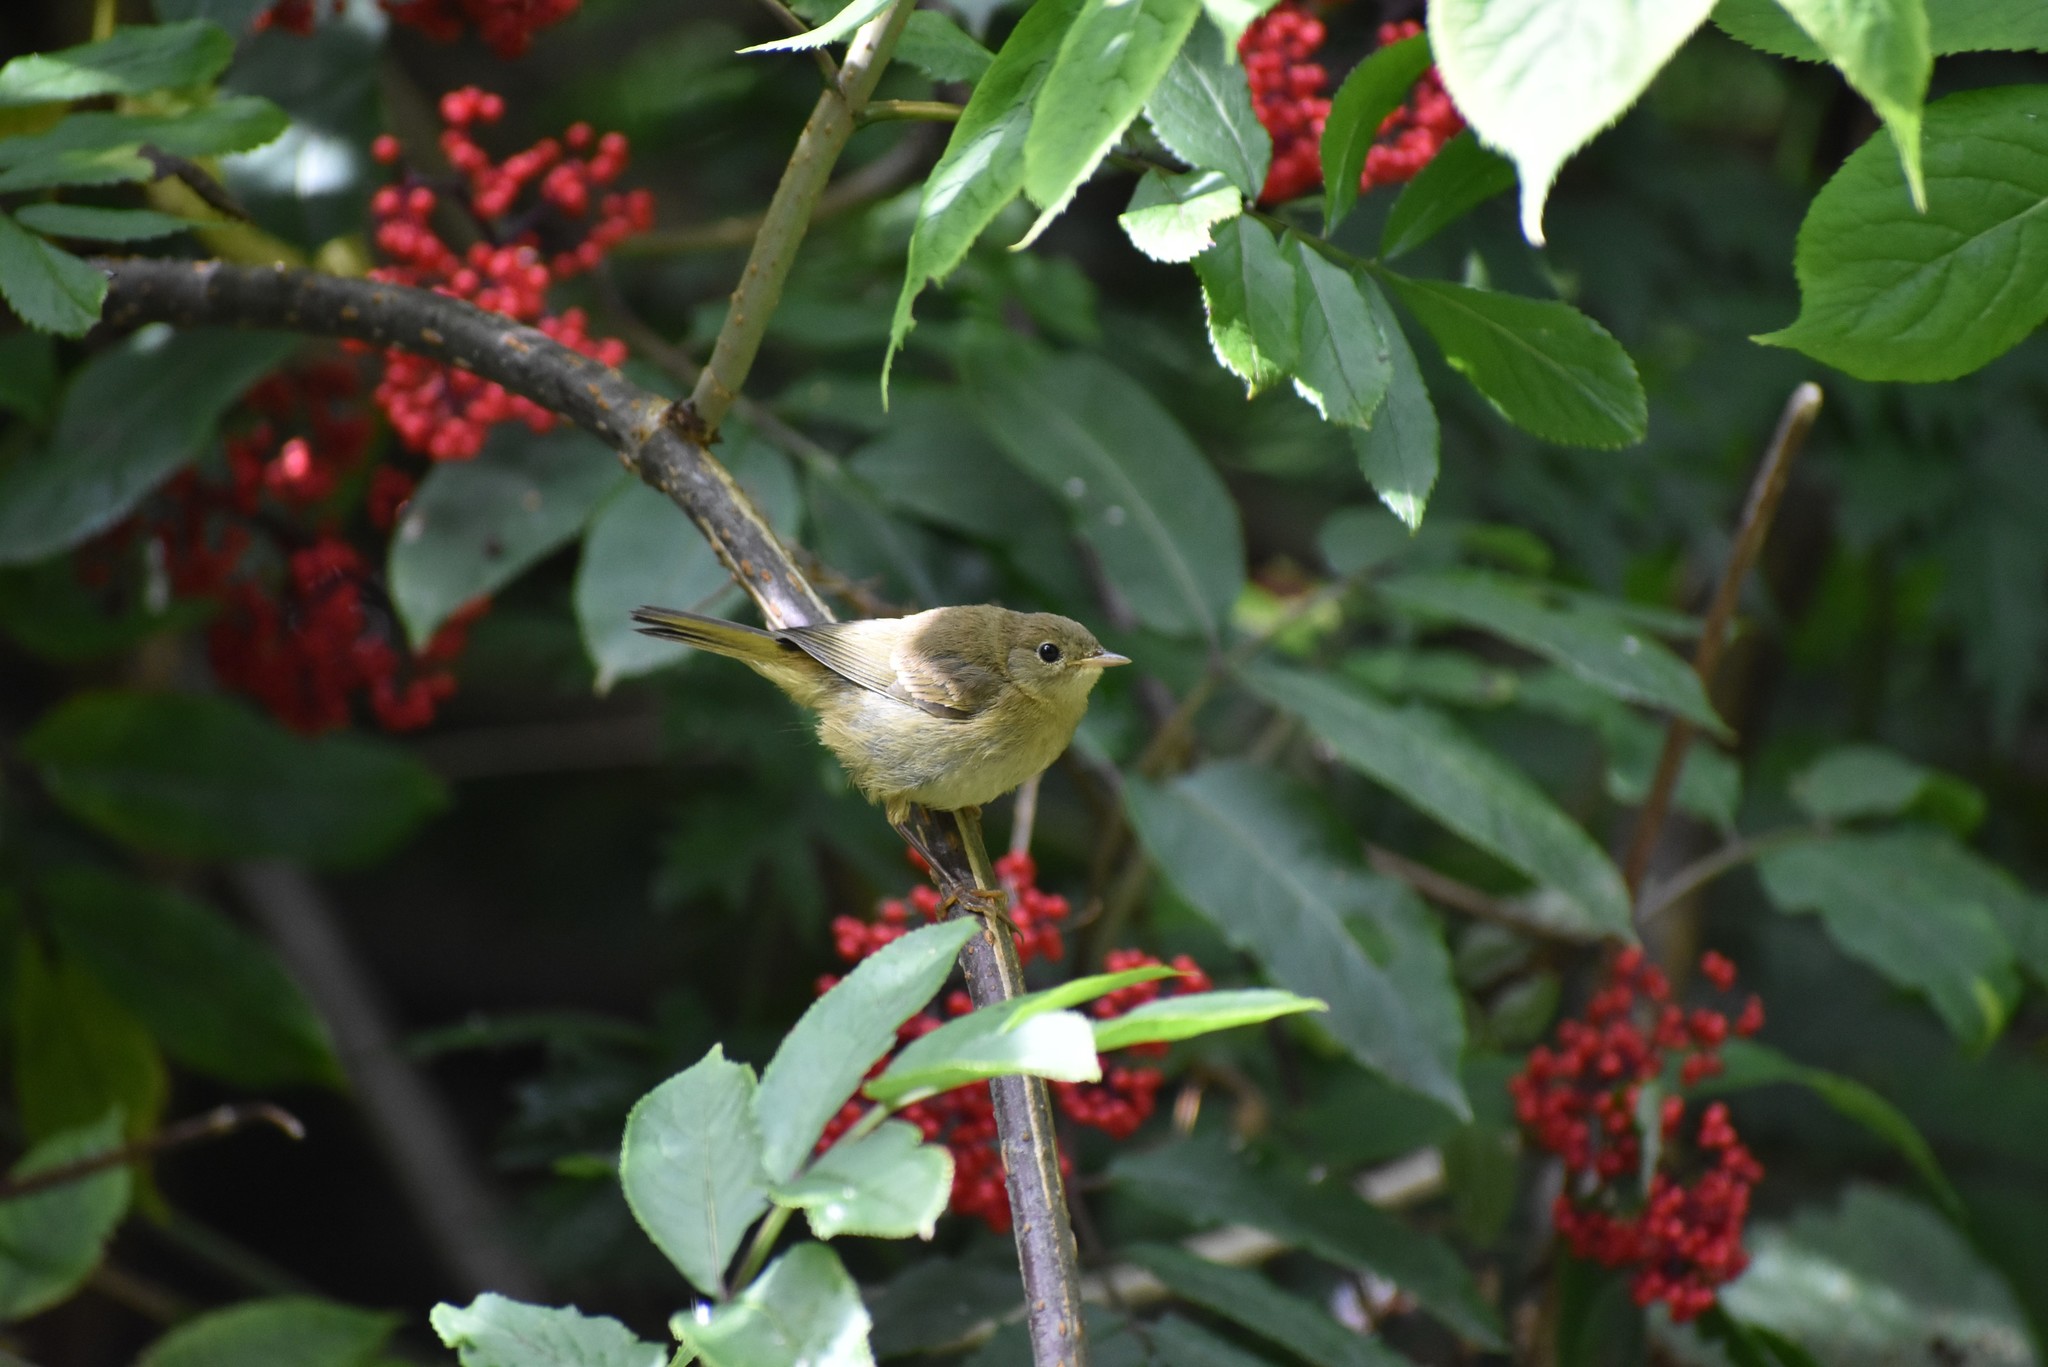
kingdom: Animalia
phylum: Chordata
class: Aves
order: Passeriformes
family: Parulidae
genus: Geothlypis
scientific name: Geothlypis trichas
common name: Common yellowthroat
